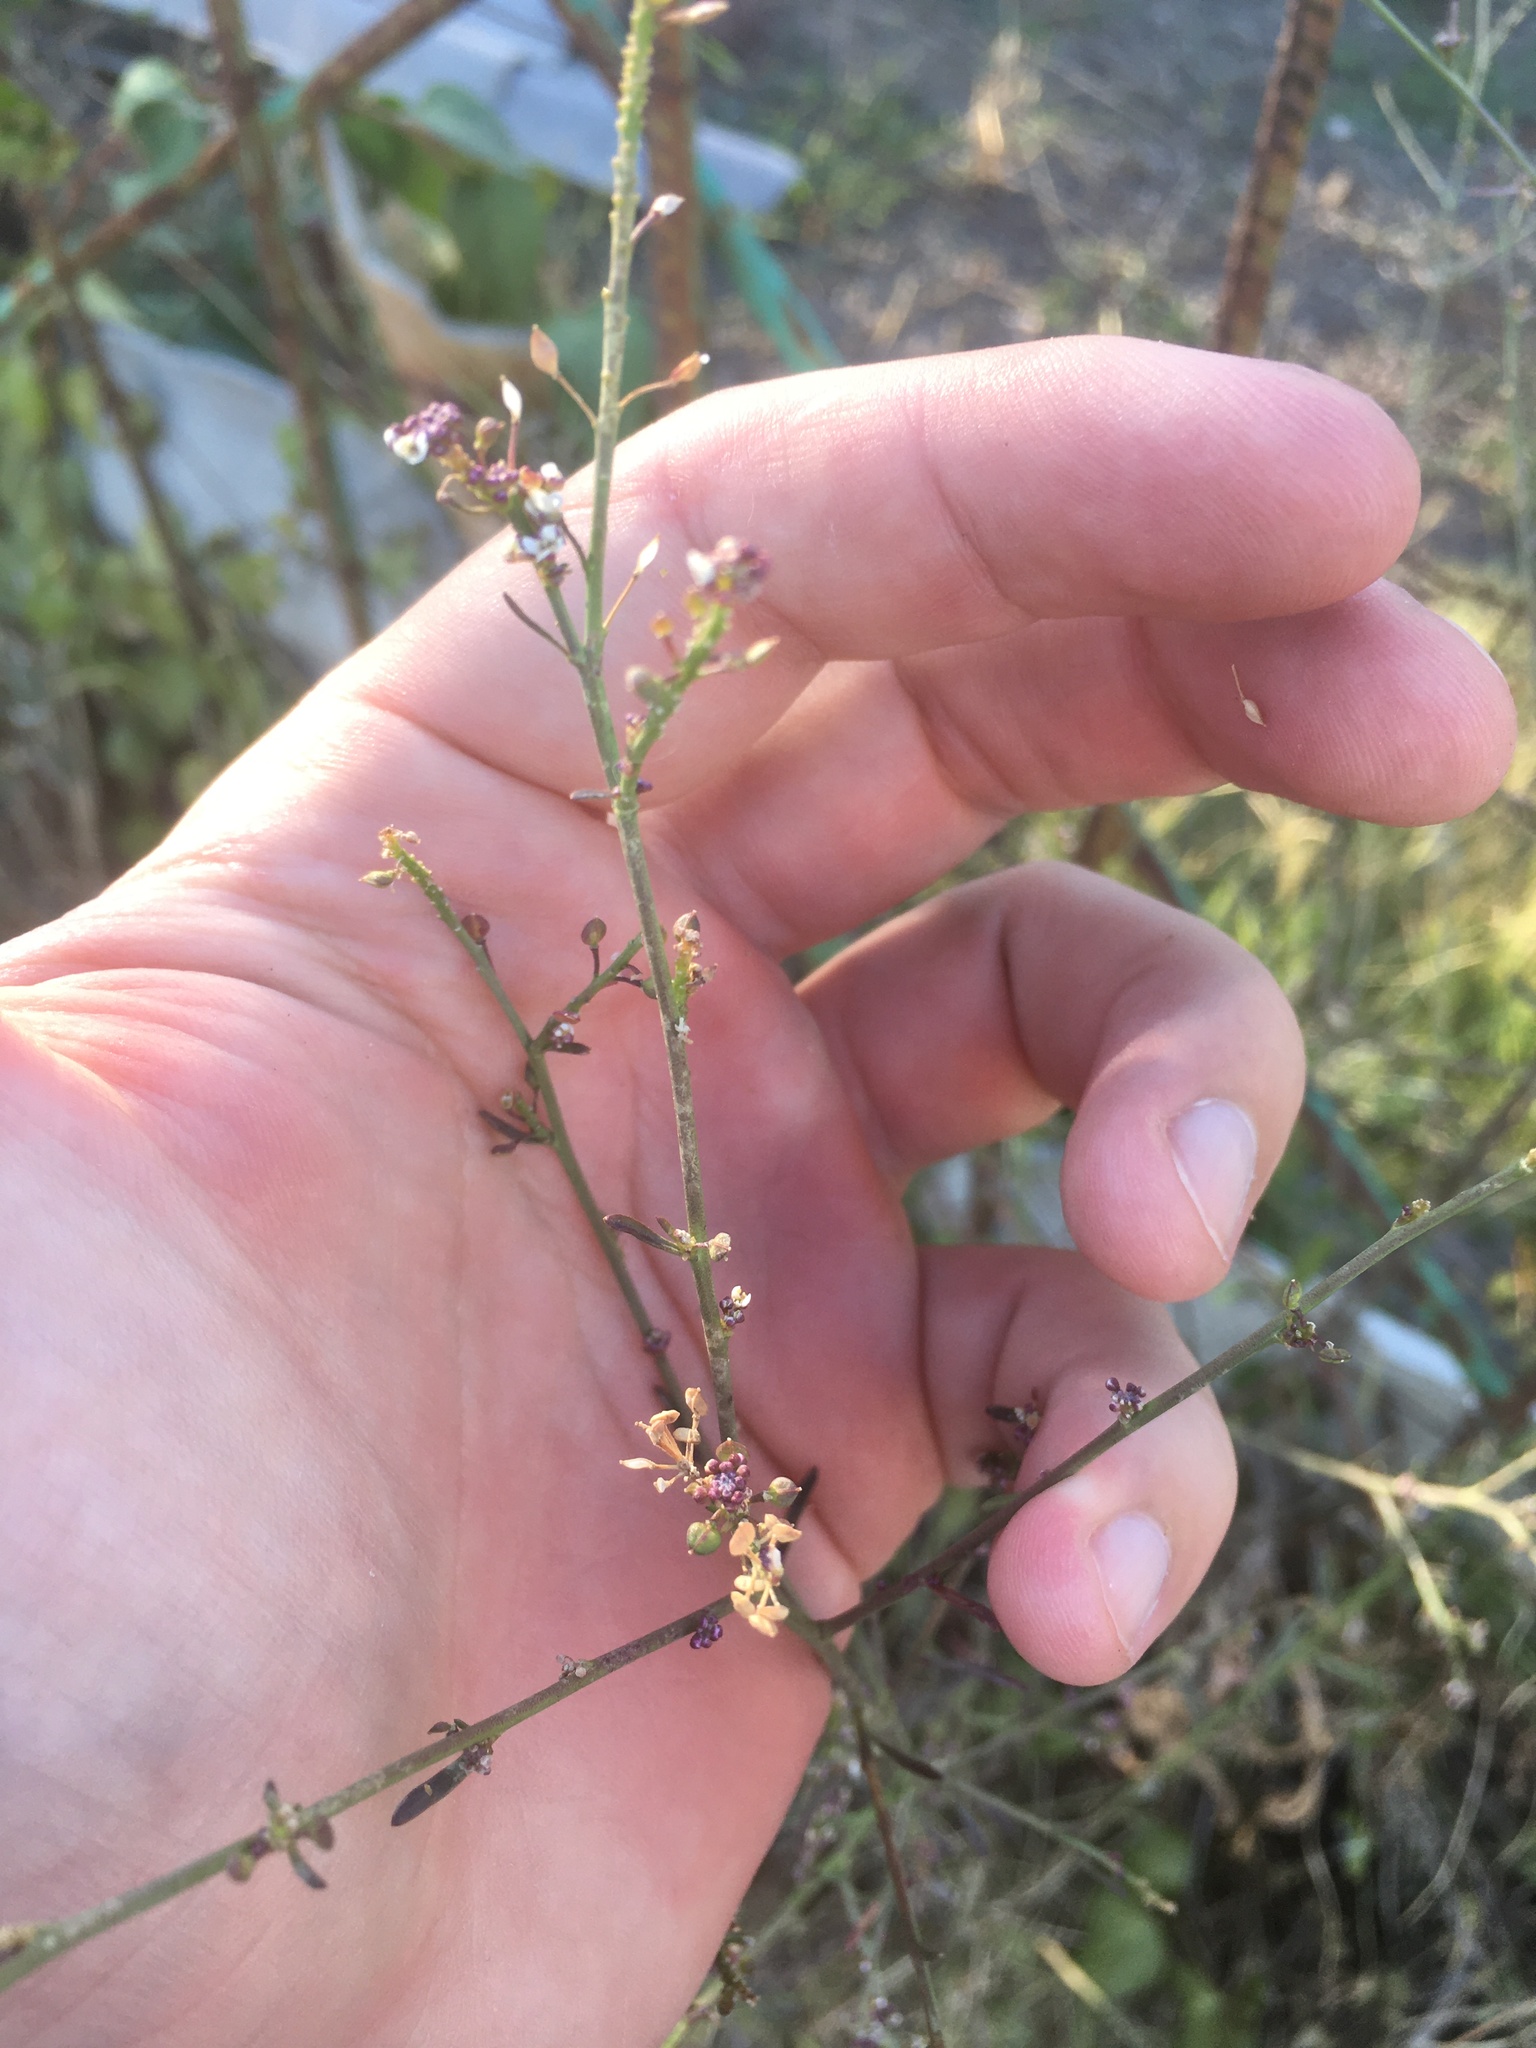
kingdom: Plantae
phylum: Tracheophyta
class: Magnoliopsida
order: Brassicales
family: Brassicaceae
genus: Lepidium
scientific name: Lepidium graminifolium
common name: Tall pepperwort
